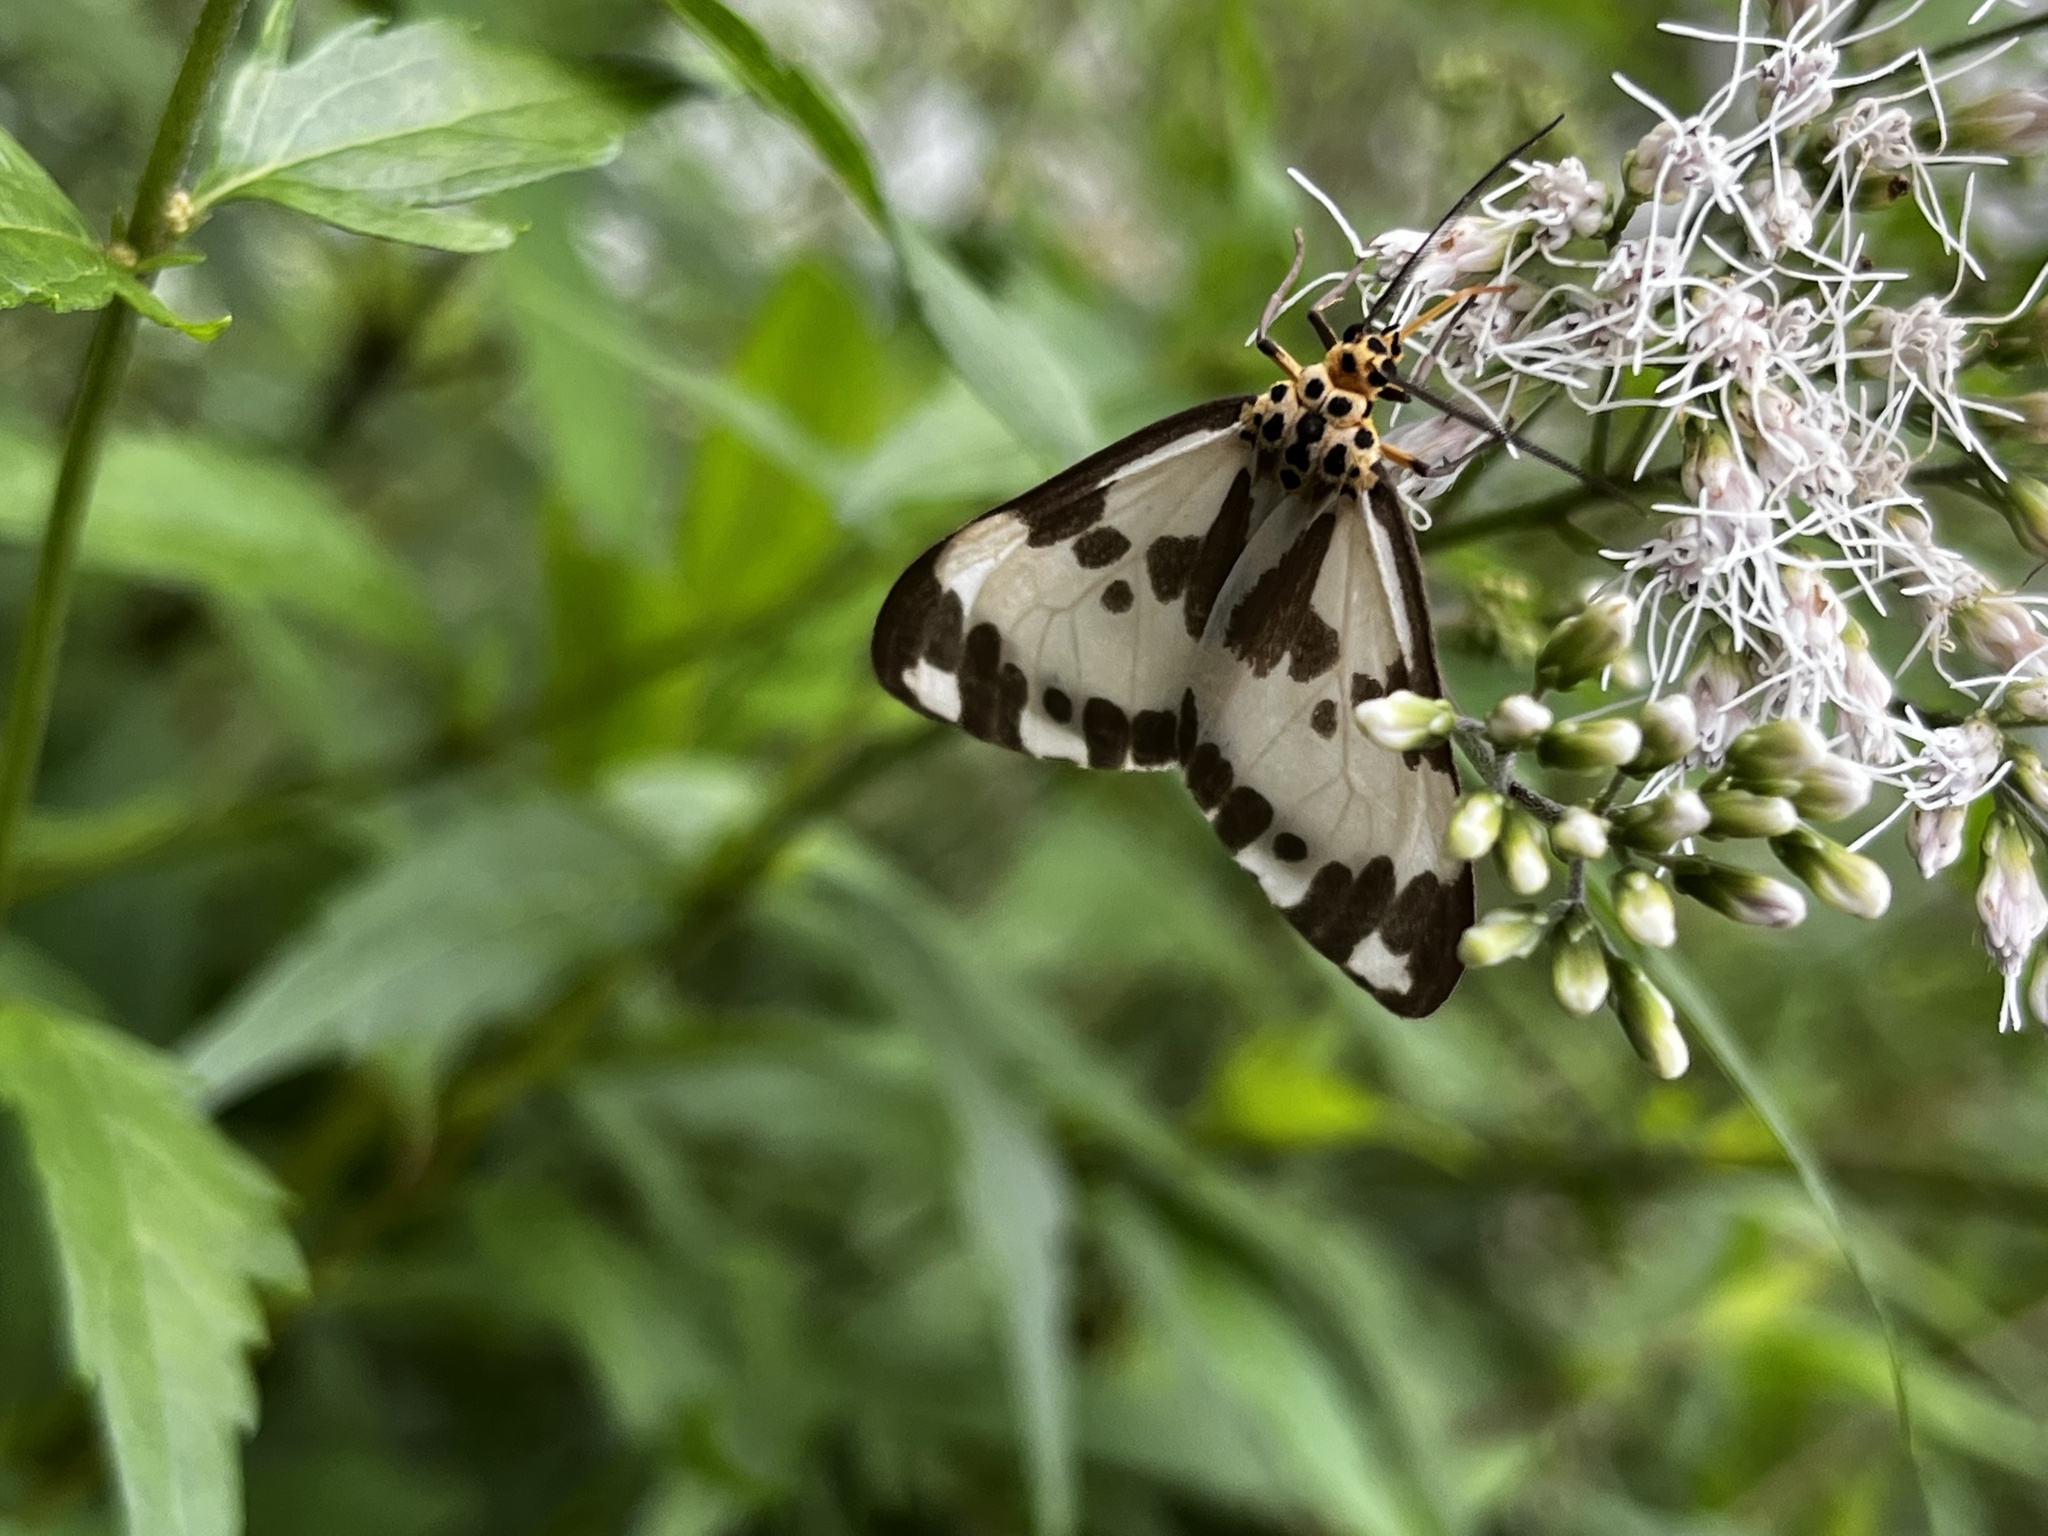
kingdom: Animalia
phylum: Arthropoda
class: Insecta
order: Lepidoptera
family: Erebidae
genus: Nyctemera
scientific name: Nyctemera carissima
